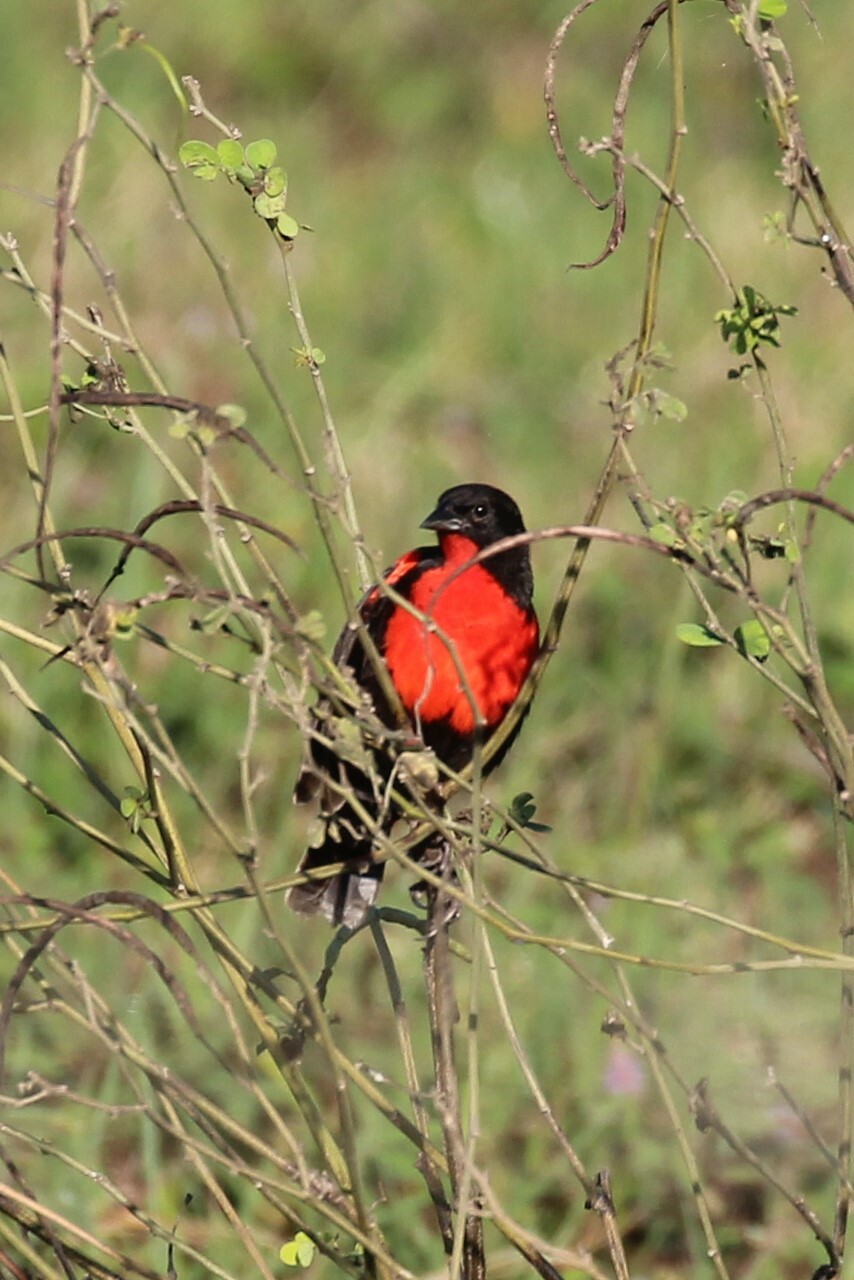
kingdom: Animalia
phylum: Chordata
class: Aves
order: Passeriformes
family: Icteridae
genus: Sturnella
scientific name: Sturnella militaris
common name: Red-breasted blackbird
